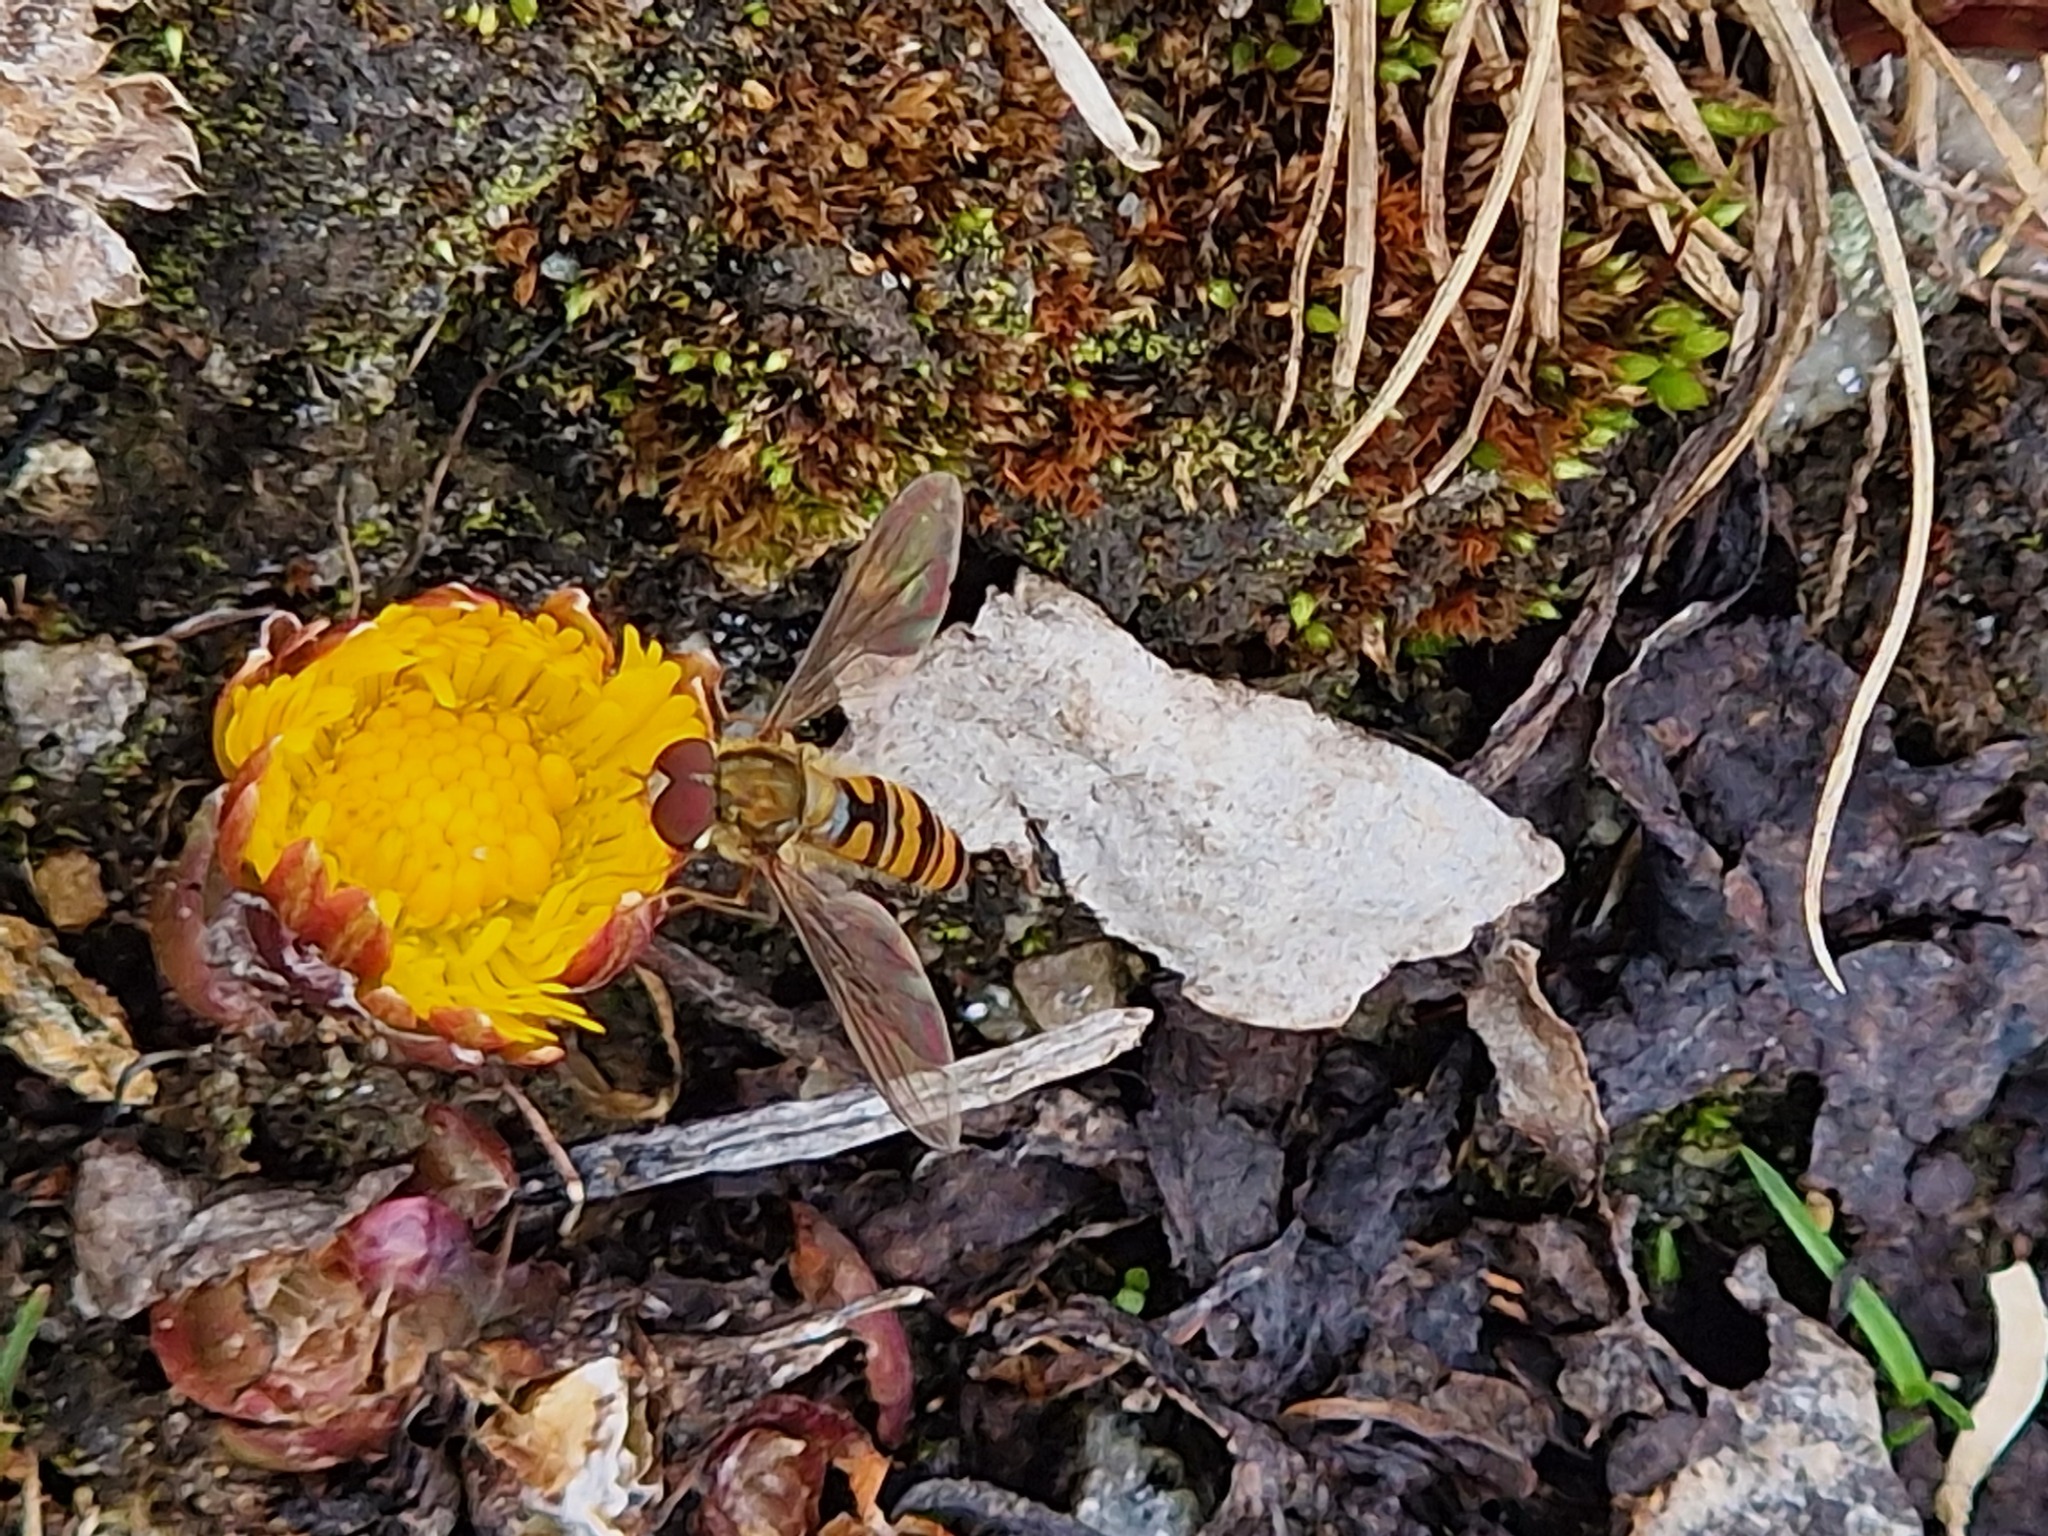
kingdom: Plantae
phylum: Tracheophyta
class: Magnoliopsida
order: Asterales
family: Asteraceae
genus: Tussilago
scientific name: Tussilago farfara
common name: Coltsfoot
